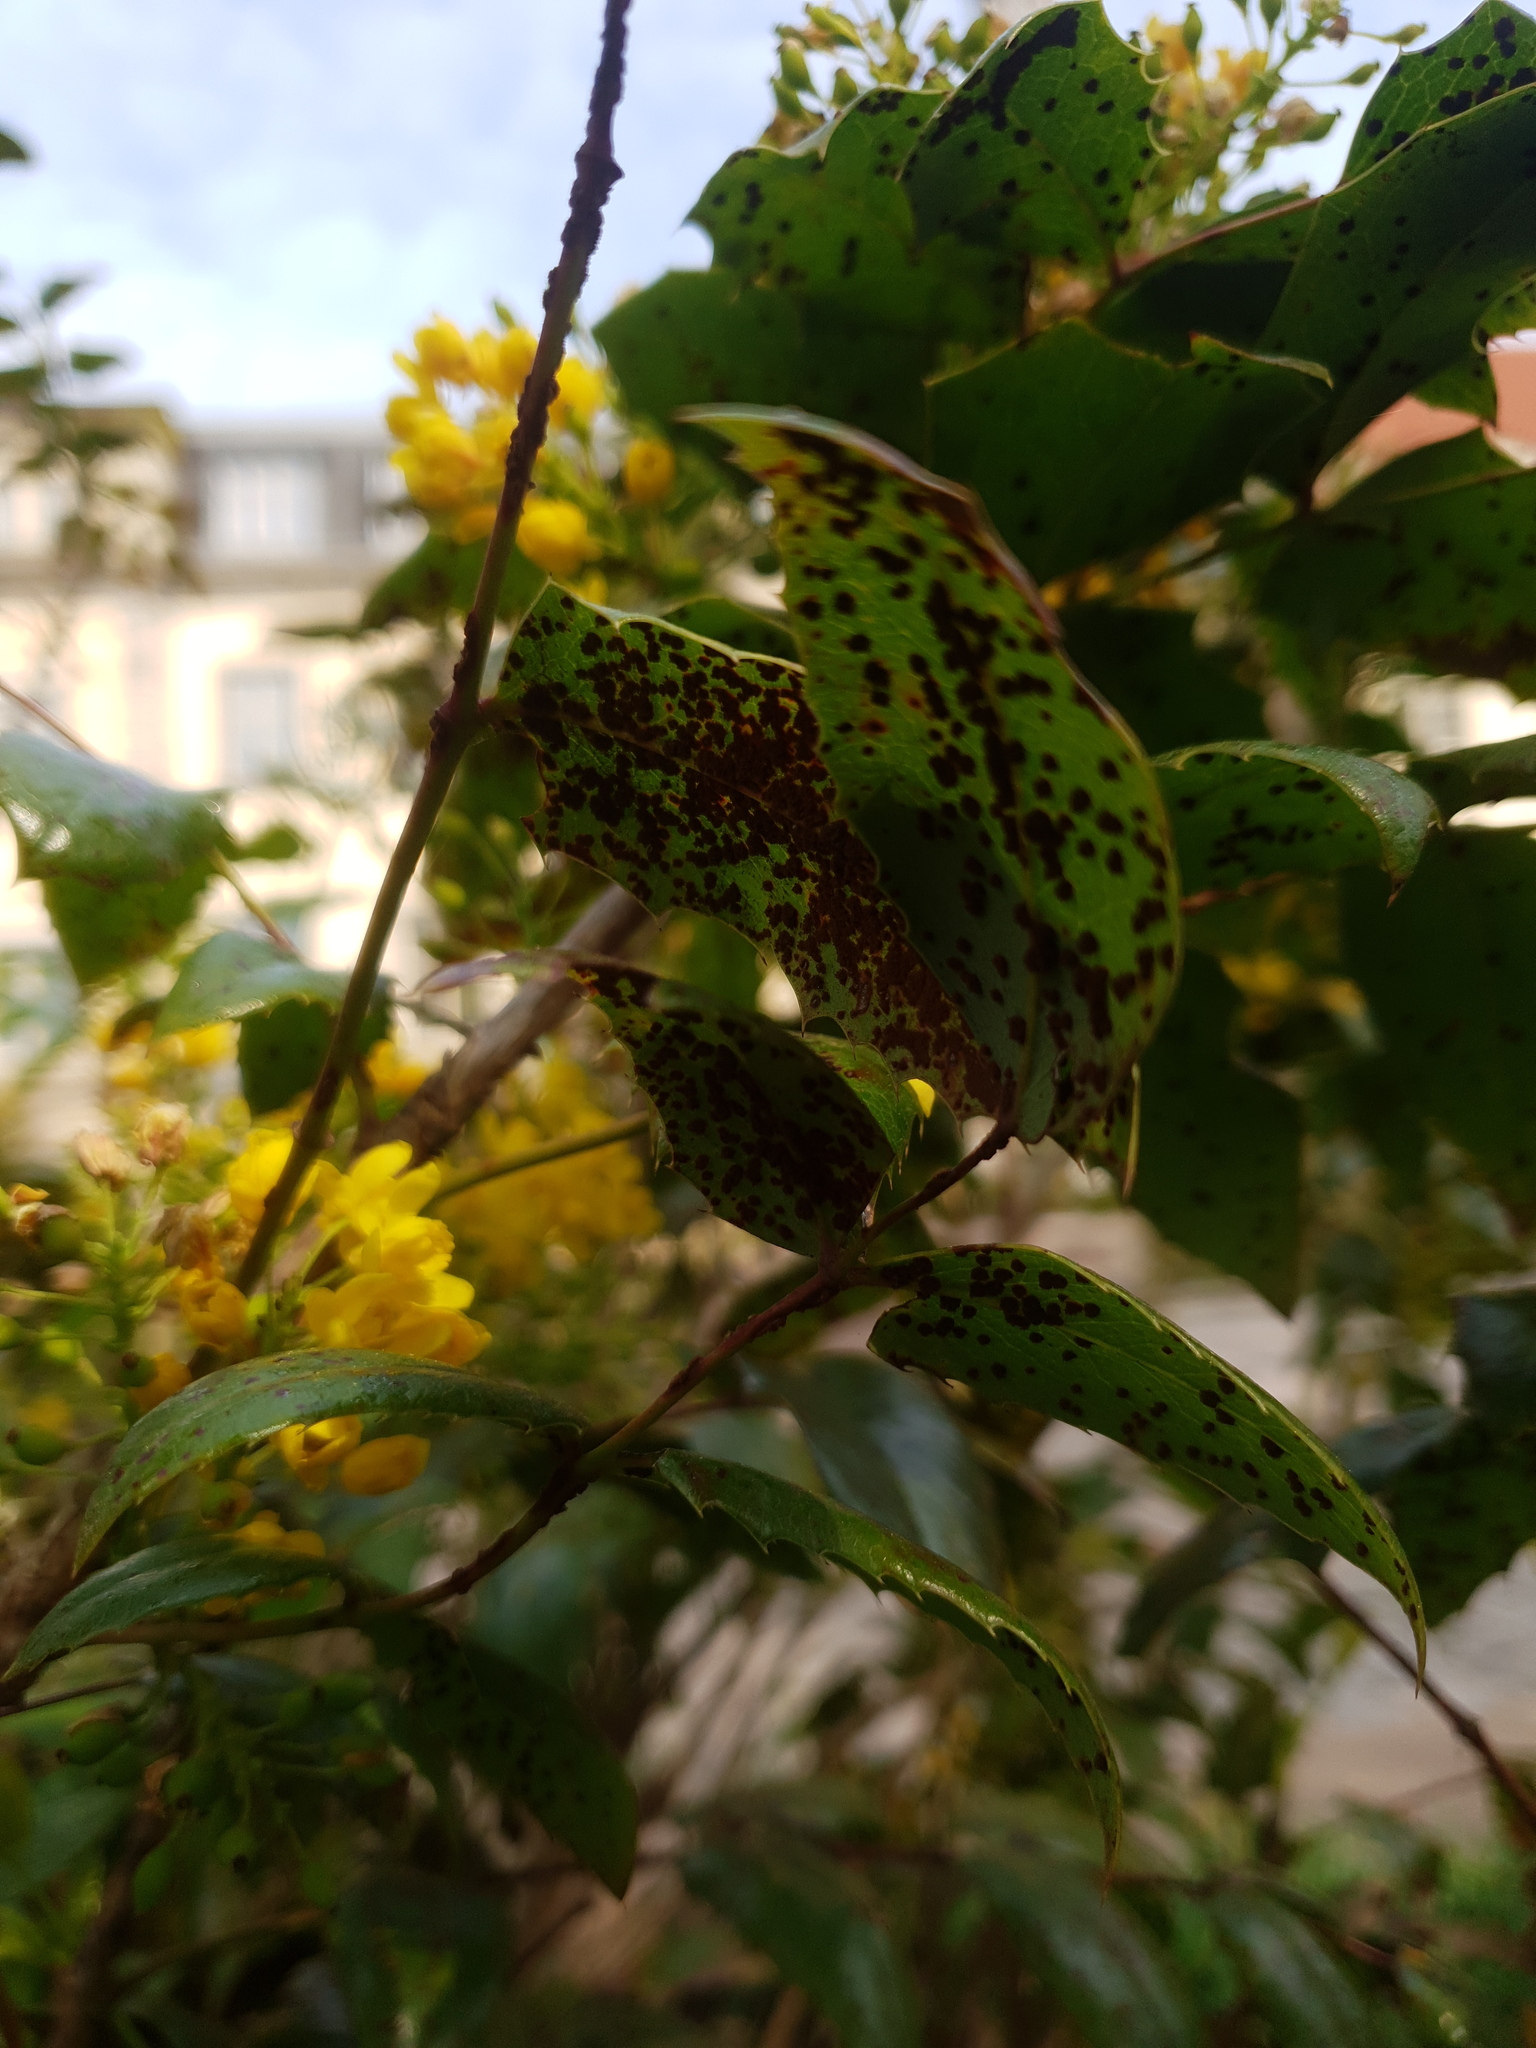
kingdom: Fungi
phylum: Basidiomycota
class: Pucciniomycetes
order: Pucciniales
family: Pucciniaceae
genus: Cumminsiella
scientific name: Cumminsiella mirabilissima
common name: Mahonia rust
